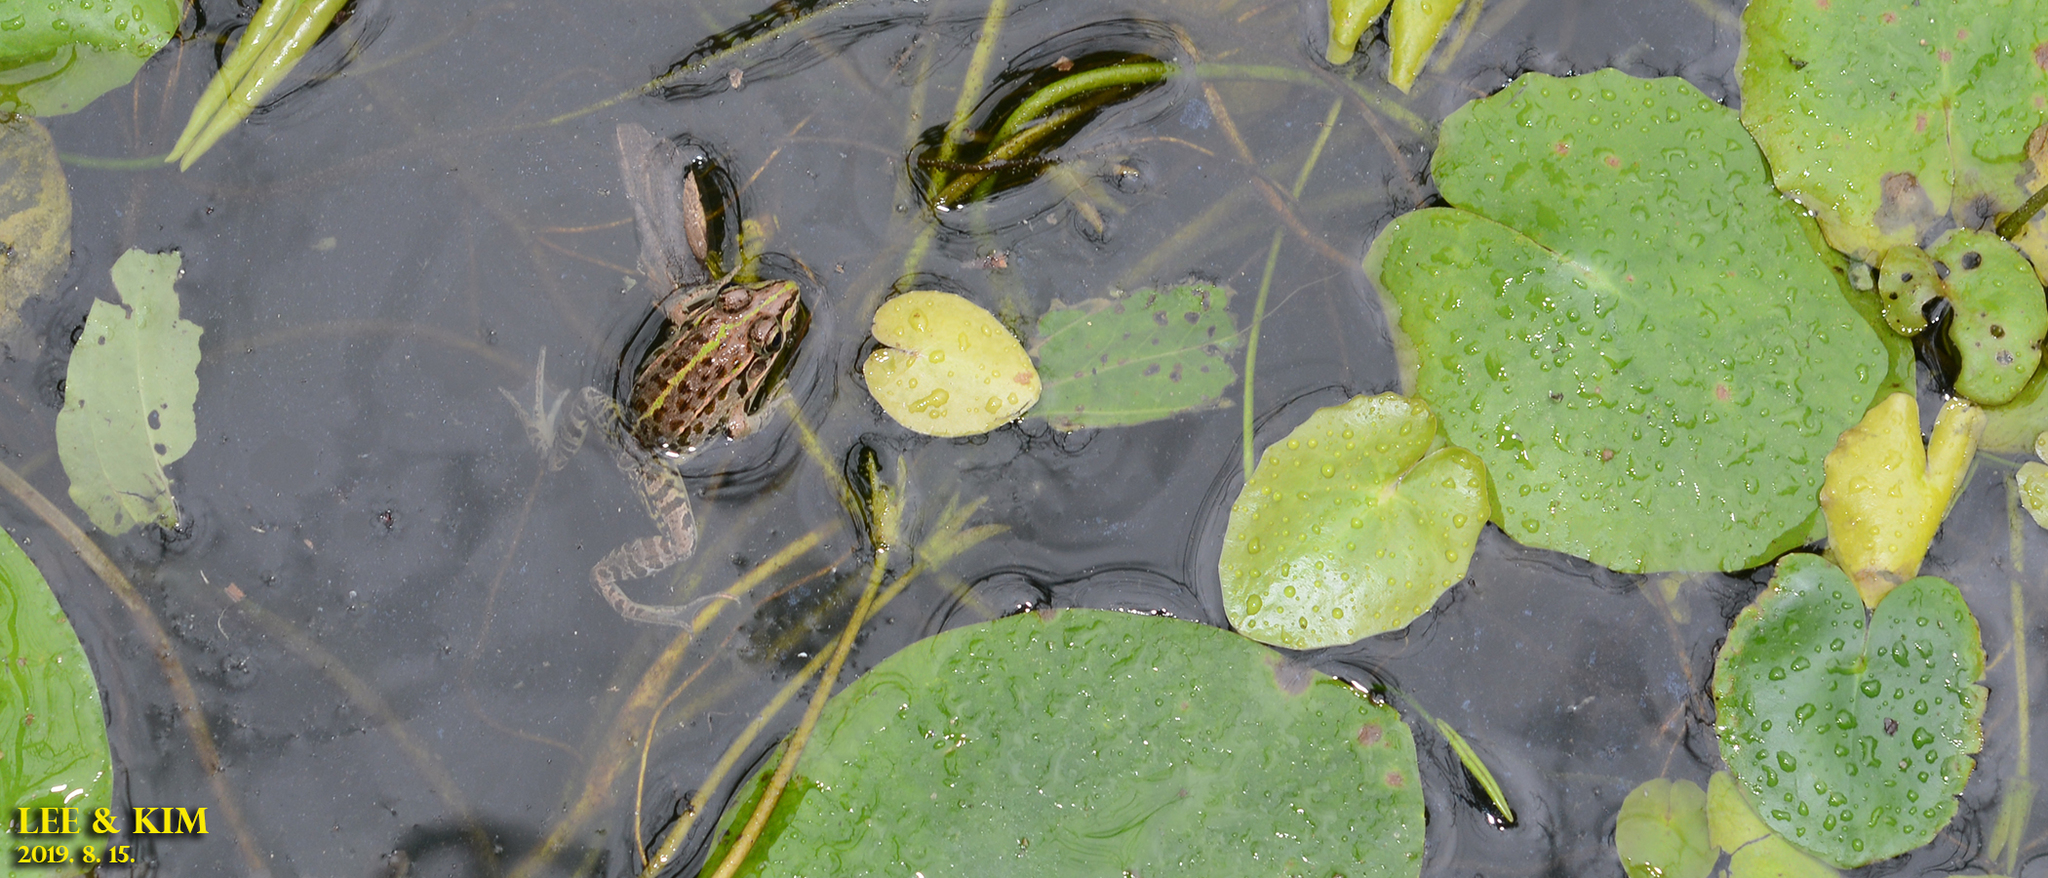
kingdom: Animalia
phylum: Chordata
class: Amphibia
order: Anura
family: Ranidae
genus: Pelophylax
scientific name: Pelophylax nigromaculatus
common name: Black-spotted pond frog
